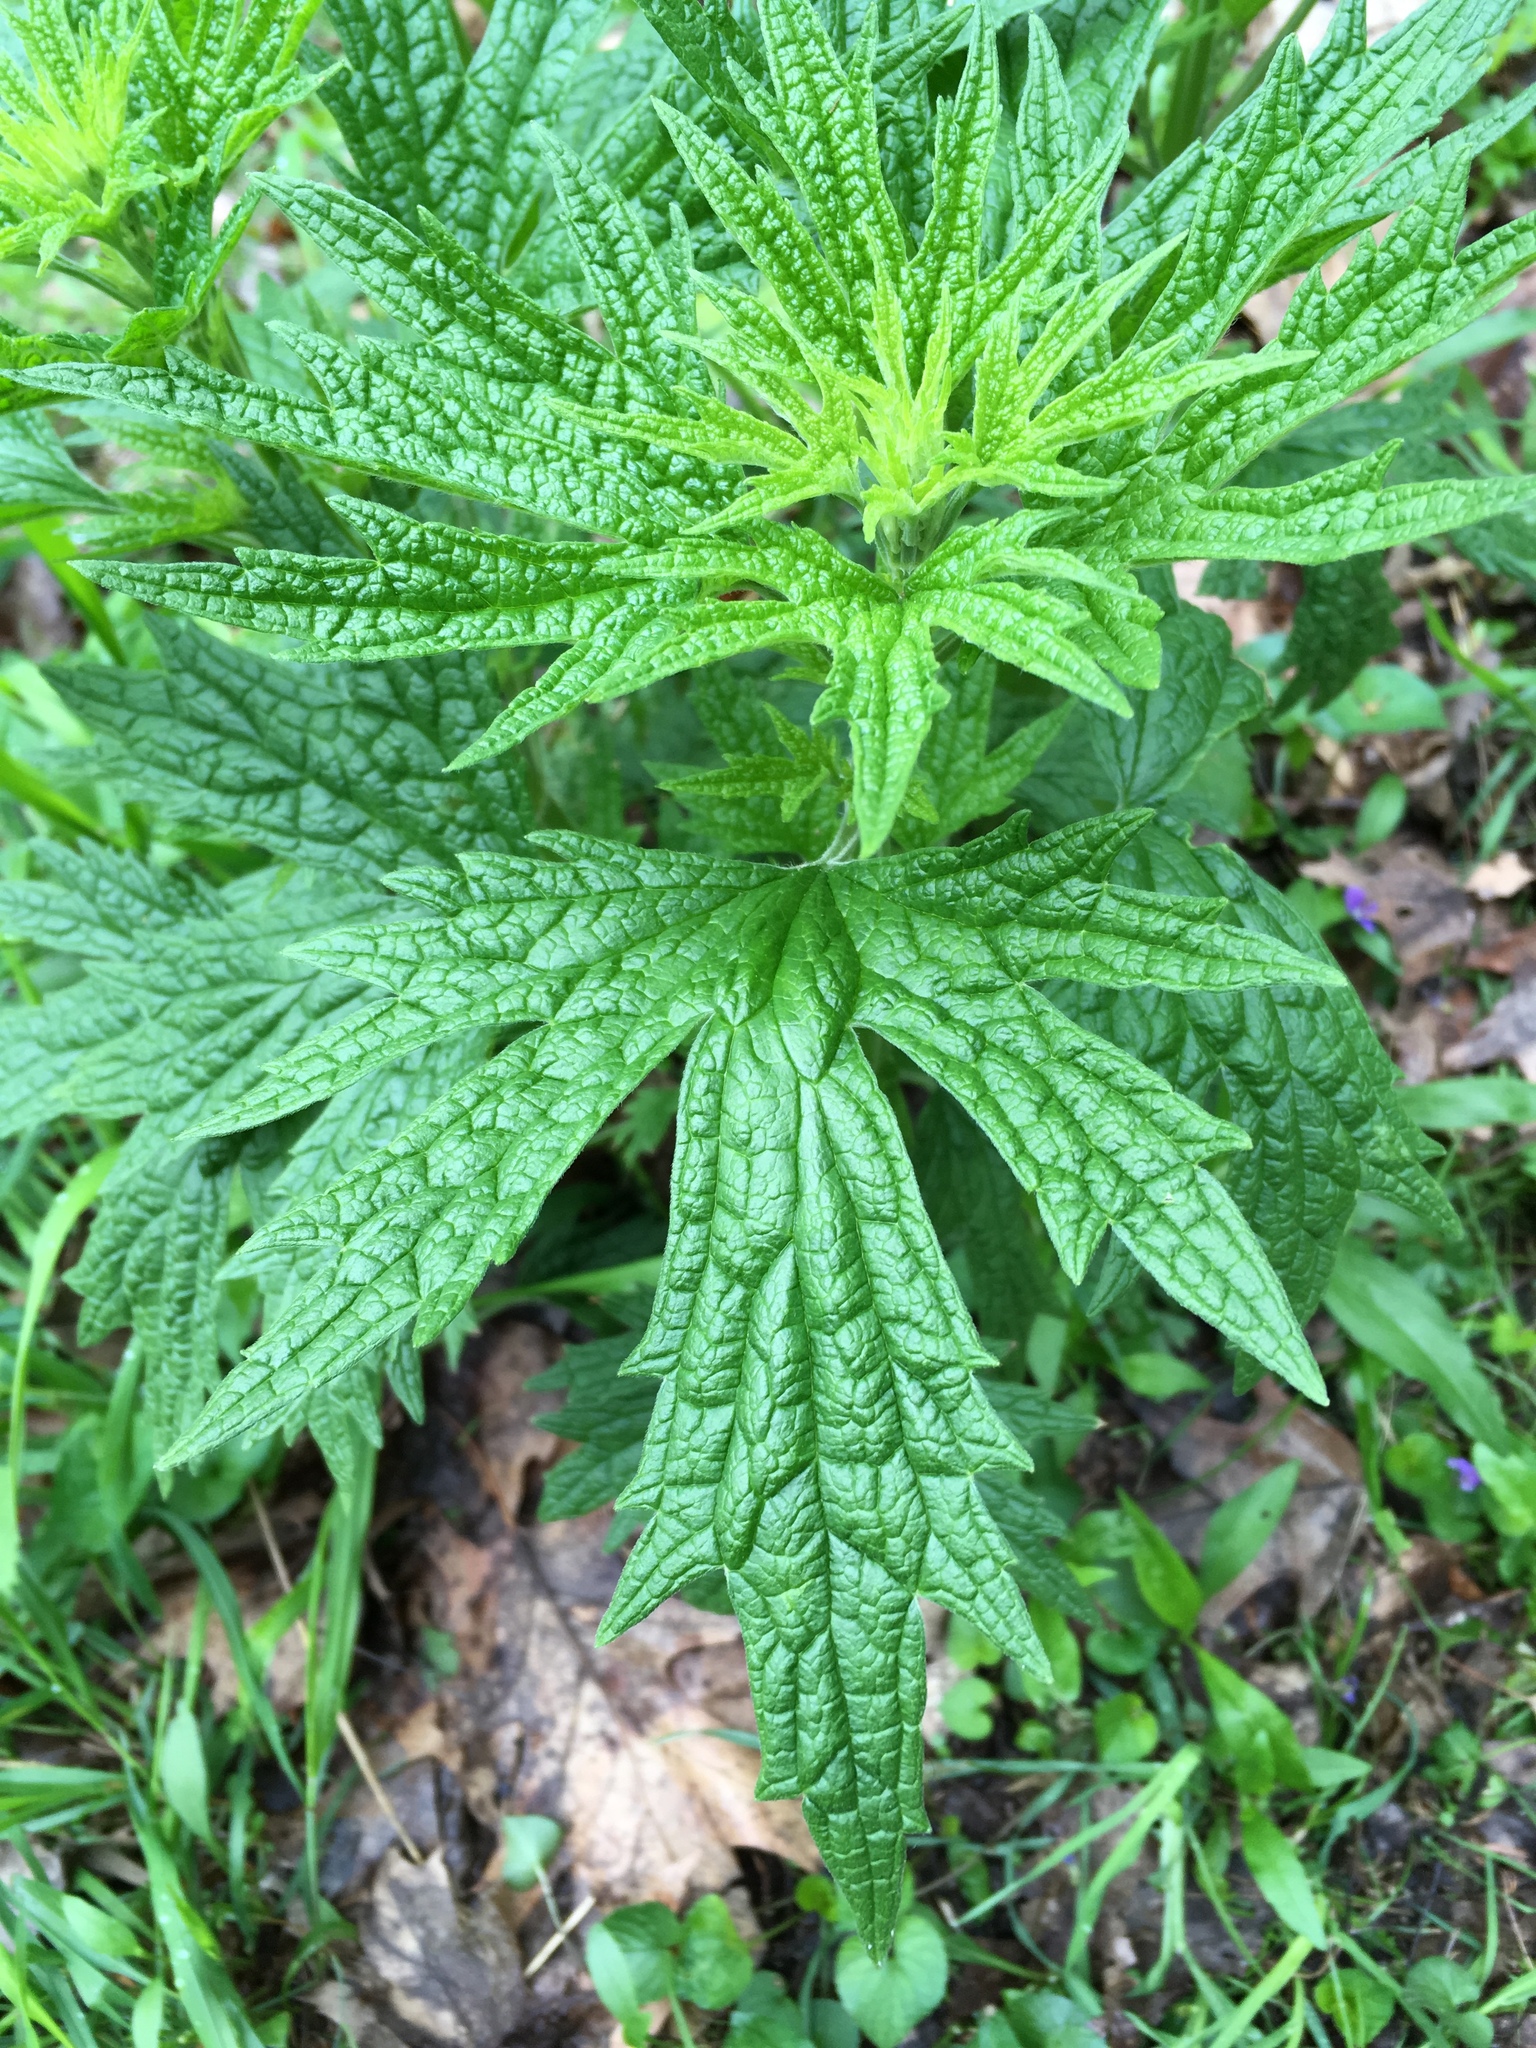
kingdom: Plantae
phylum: Tracheophyta
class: Magnoliopsida
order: Lamiales
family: Lamiaceae
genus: Leonurus
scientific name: Leonurus cardiaca
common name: Motherwort
